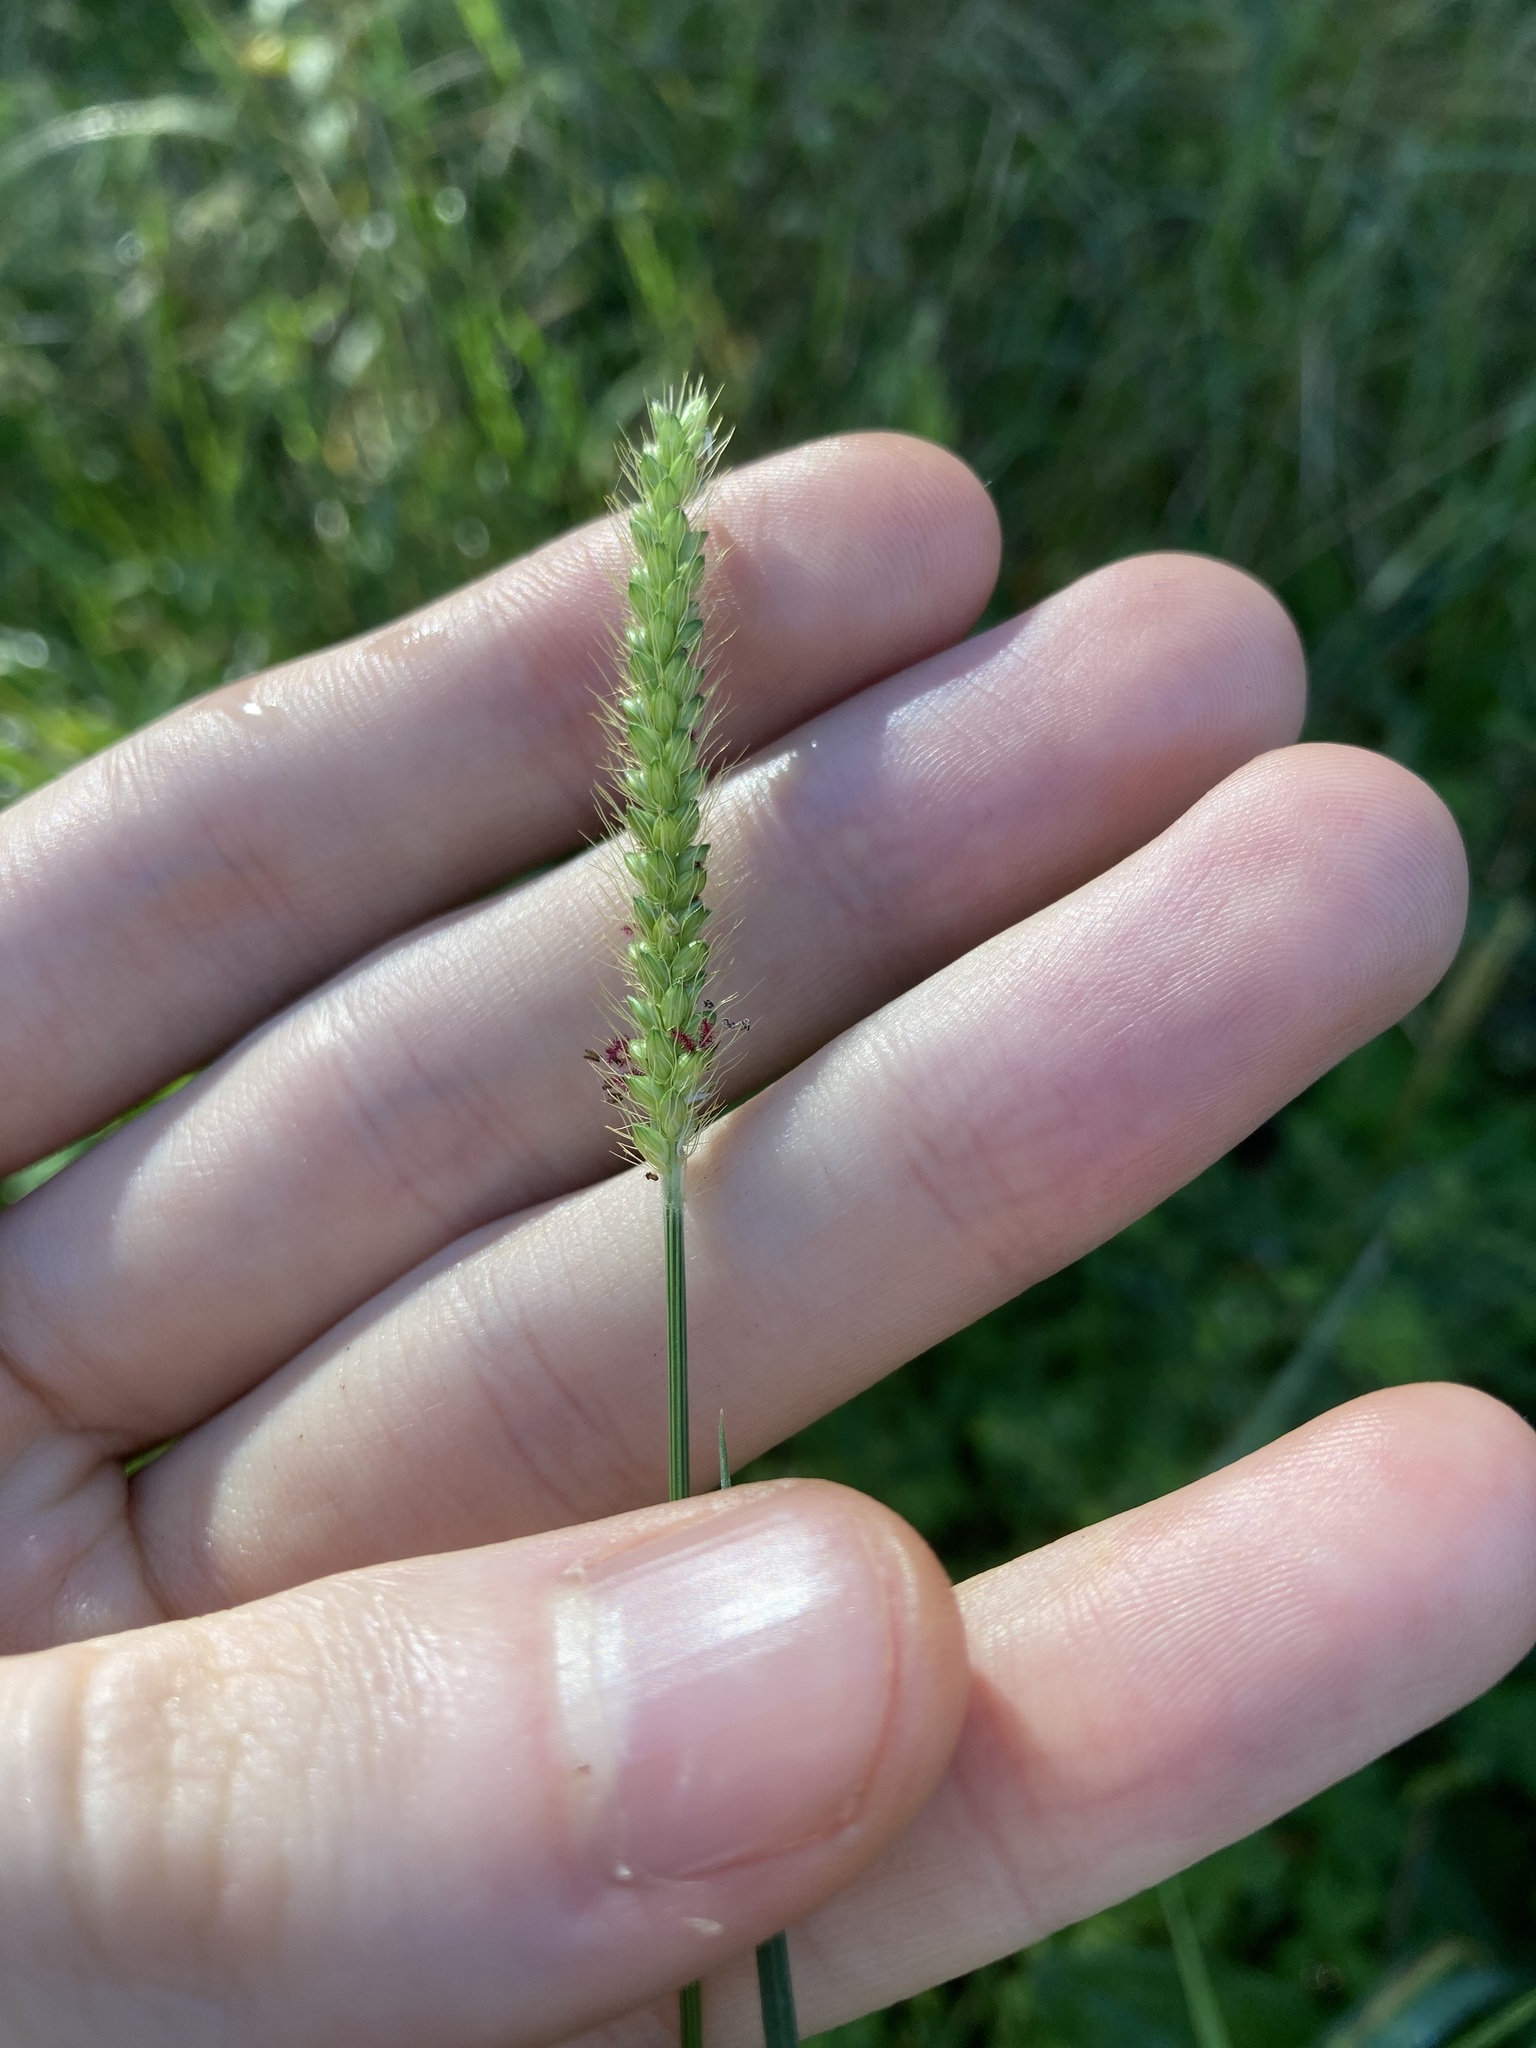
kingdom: Plantae
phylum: Tracheophyta
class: Liliopsida
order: Poales
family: Poaceae
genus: Setaria
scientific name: Setaria parviflora
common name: Knotroot bristle-grass
